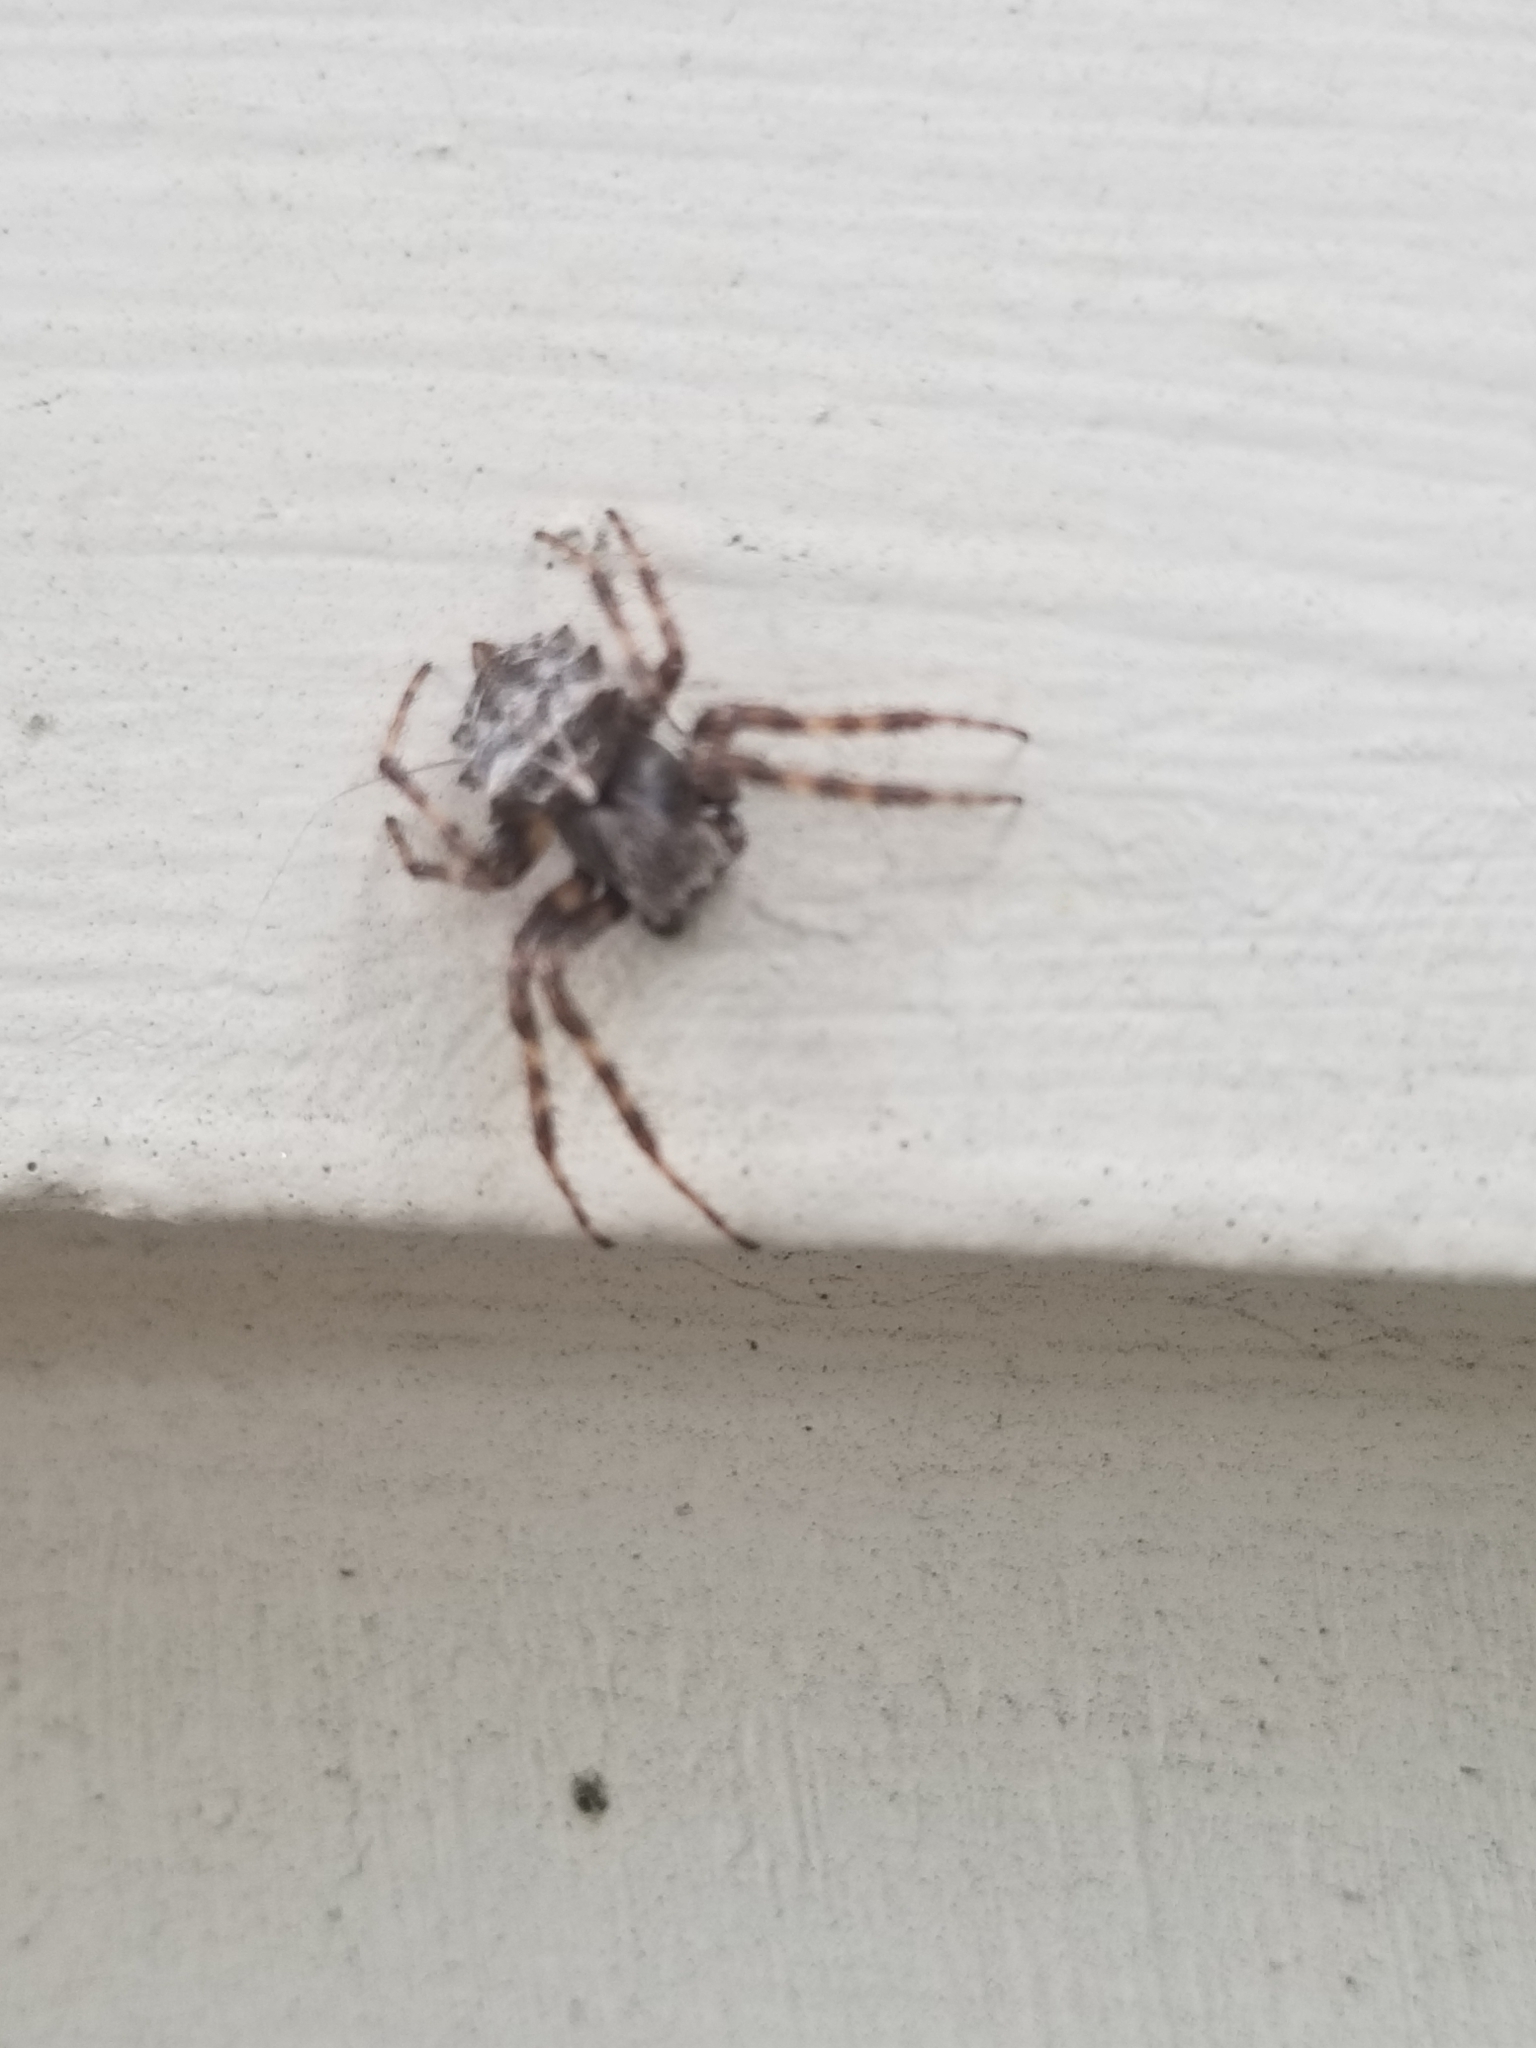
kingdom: Animalia
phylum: Arthropoda
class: Arachnida
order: Araneae
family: Araneidae
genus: Acanthepeira
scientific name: Acanthepeira stellata
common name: Starbellied orbweaver
